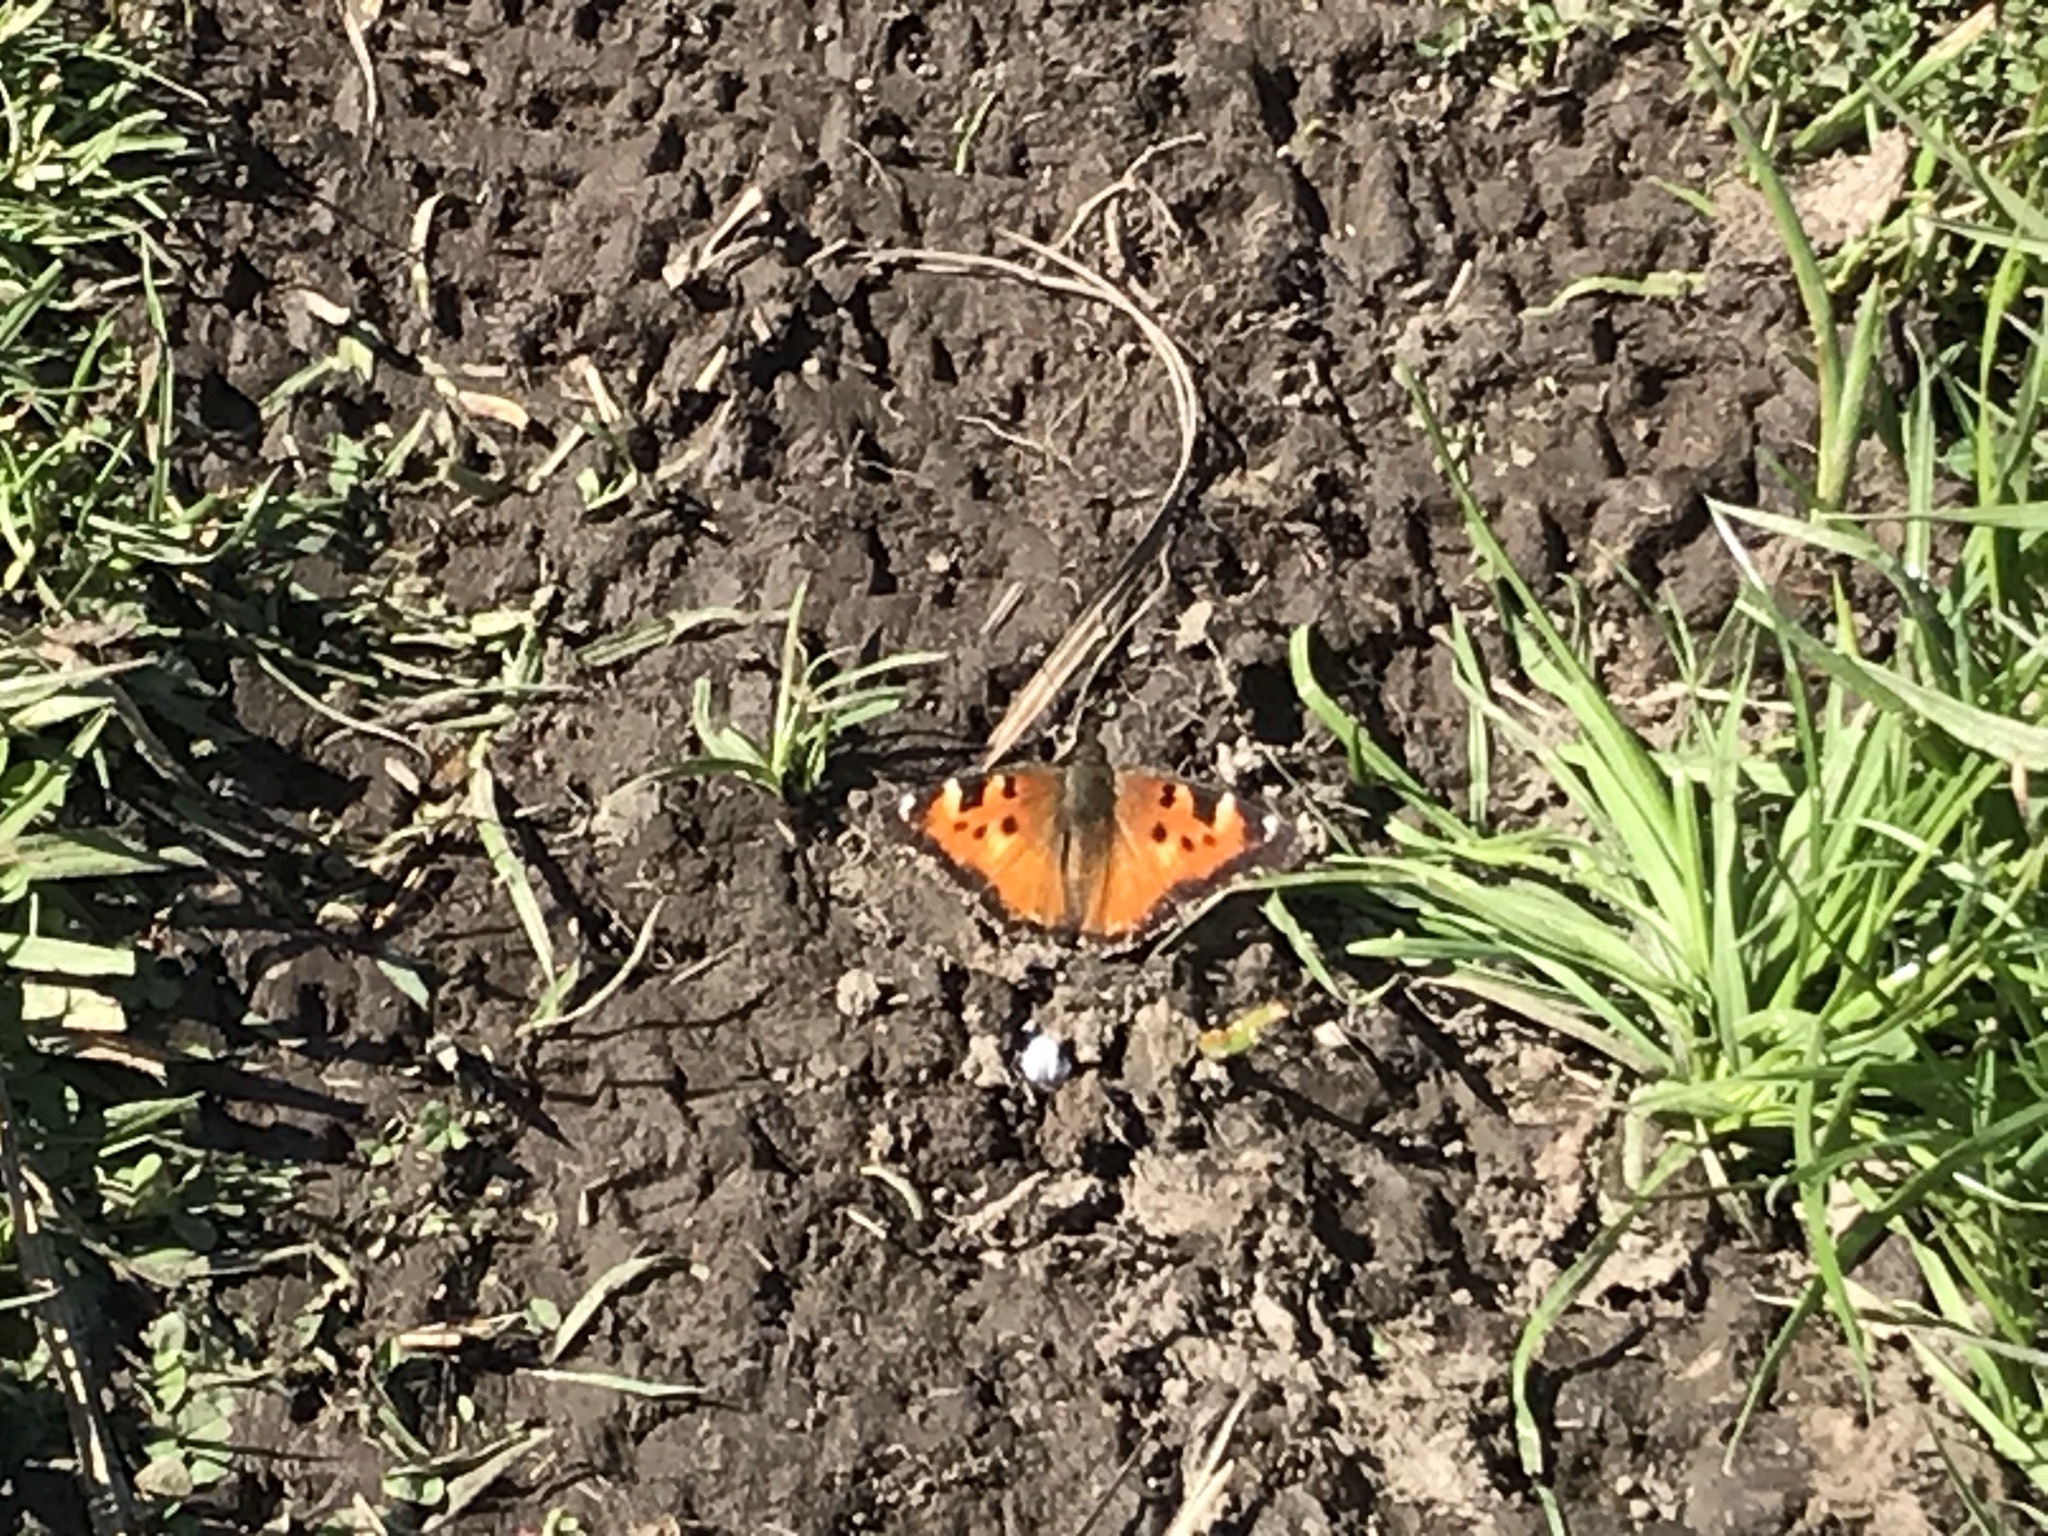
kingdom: Animalia
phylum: Arthropoda
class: Insecta
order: Lepidoptera
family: Nymphalidae
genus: Nymphalis
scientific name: Nymphalis californica
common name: California tortoiseshell
